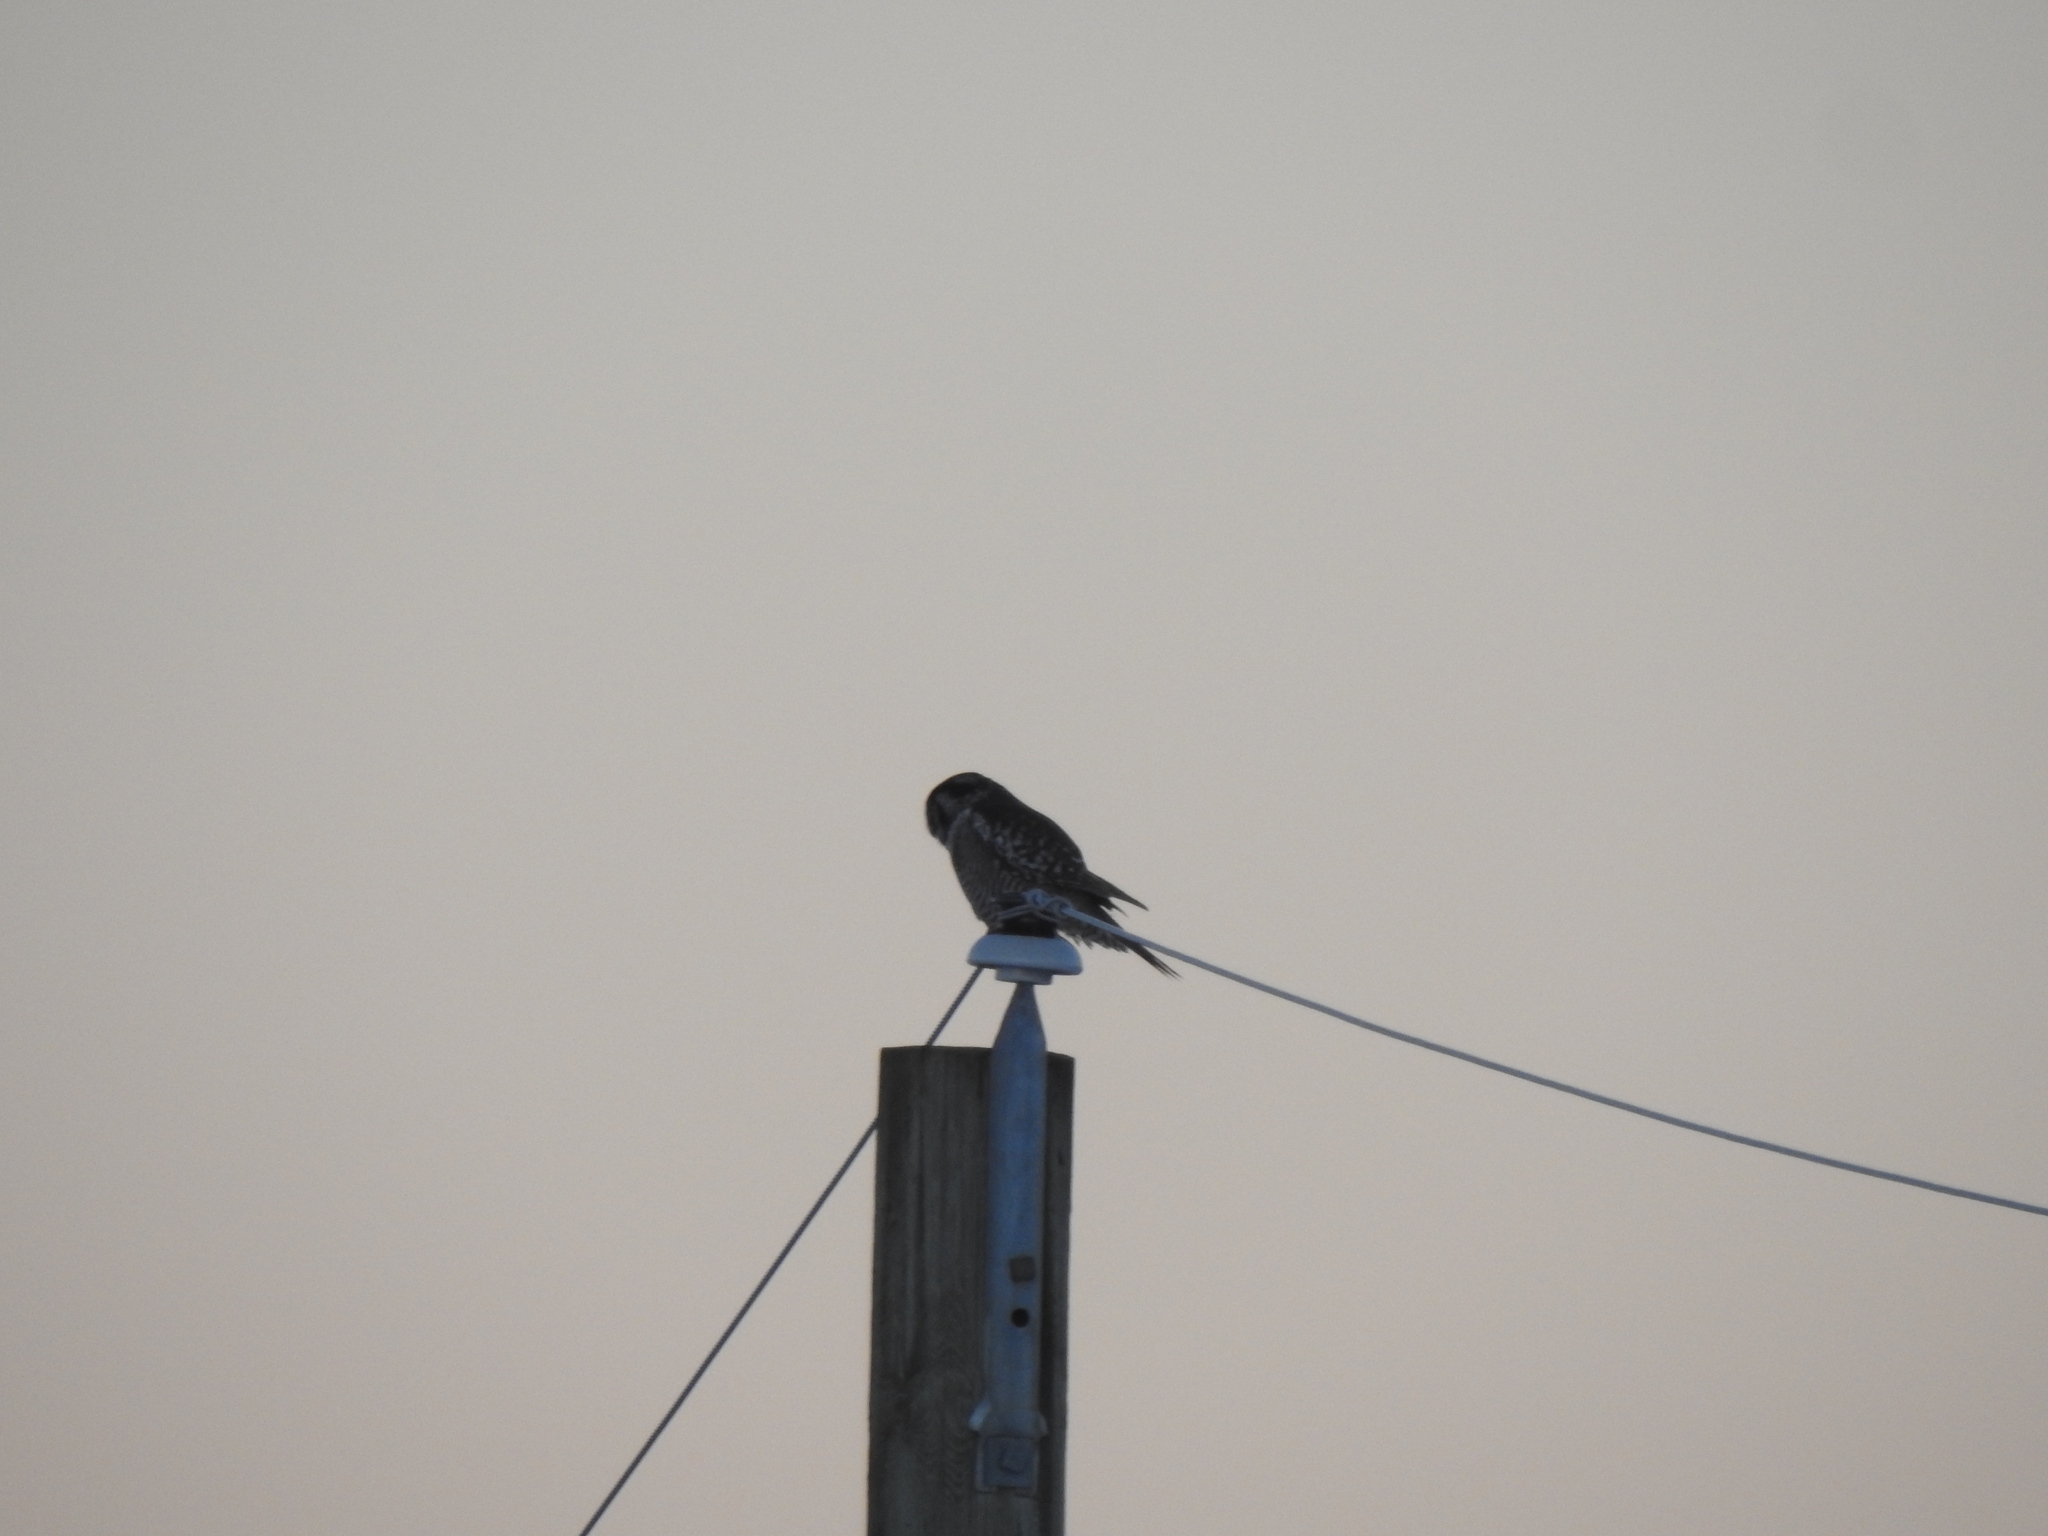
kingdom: Animalia
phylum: Chordata
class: Aves
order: Strigiformes
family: Strigidae
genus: Surnia
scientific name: Surnia ulula
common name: Northern hawk-owl
